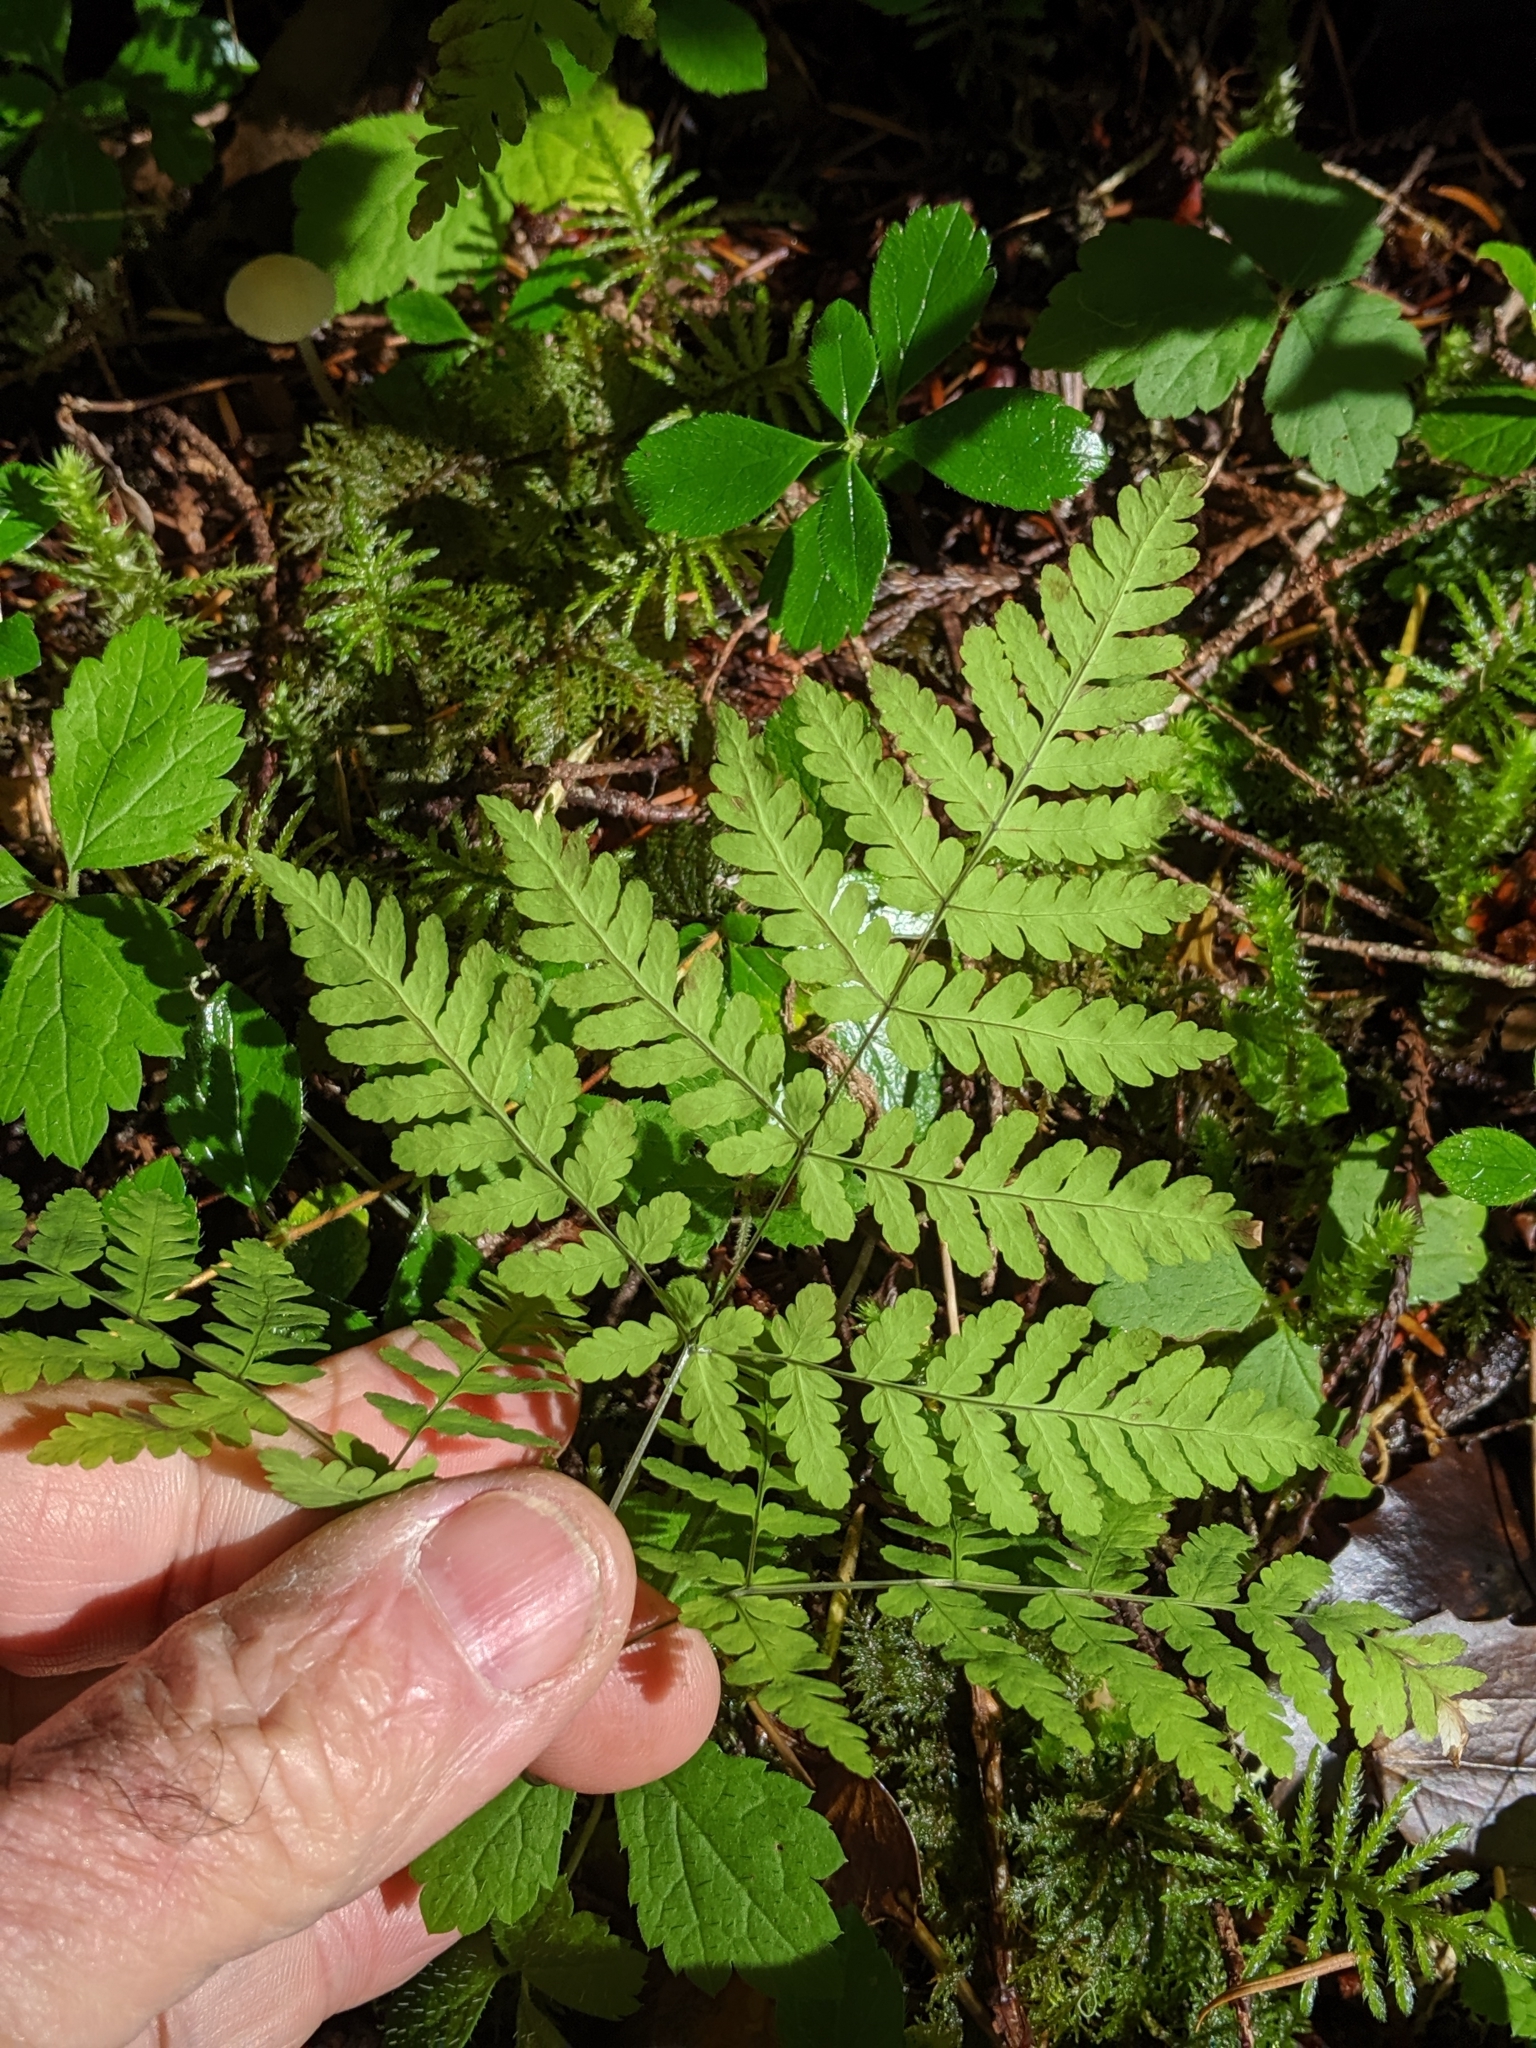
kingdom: Plantae
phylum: Tracheophyta
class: Polypodiopsida
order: Polypodiales
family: Cystopteridaceae
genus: Gymnocarpium
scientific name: Gymnocarpium disjunctum
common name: Western oak fern
